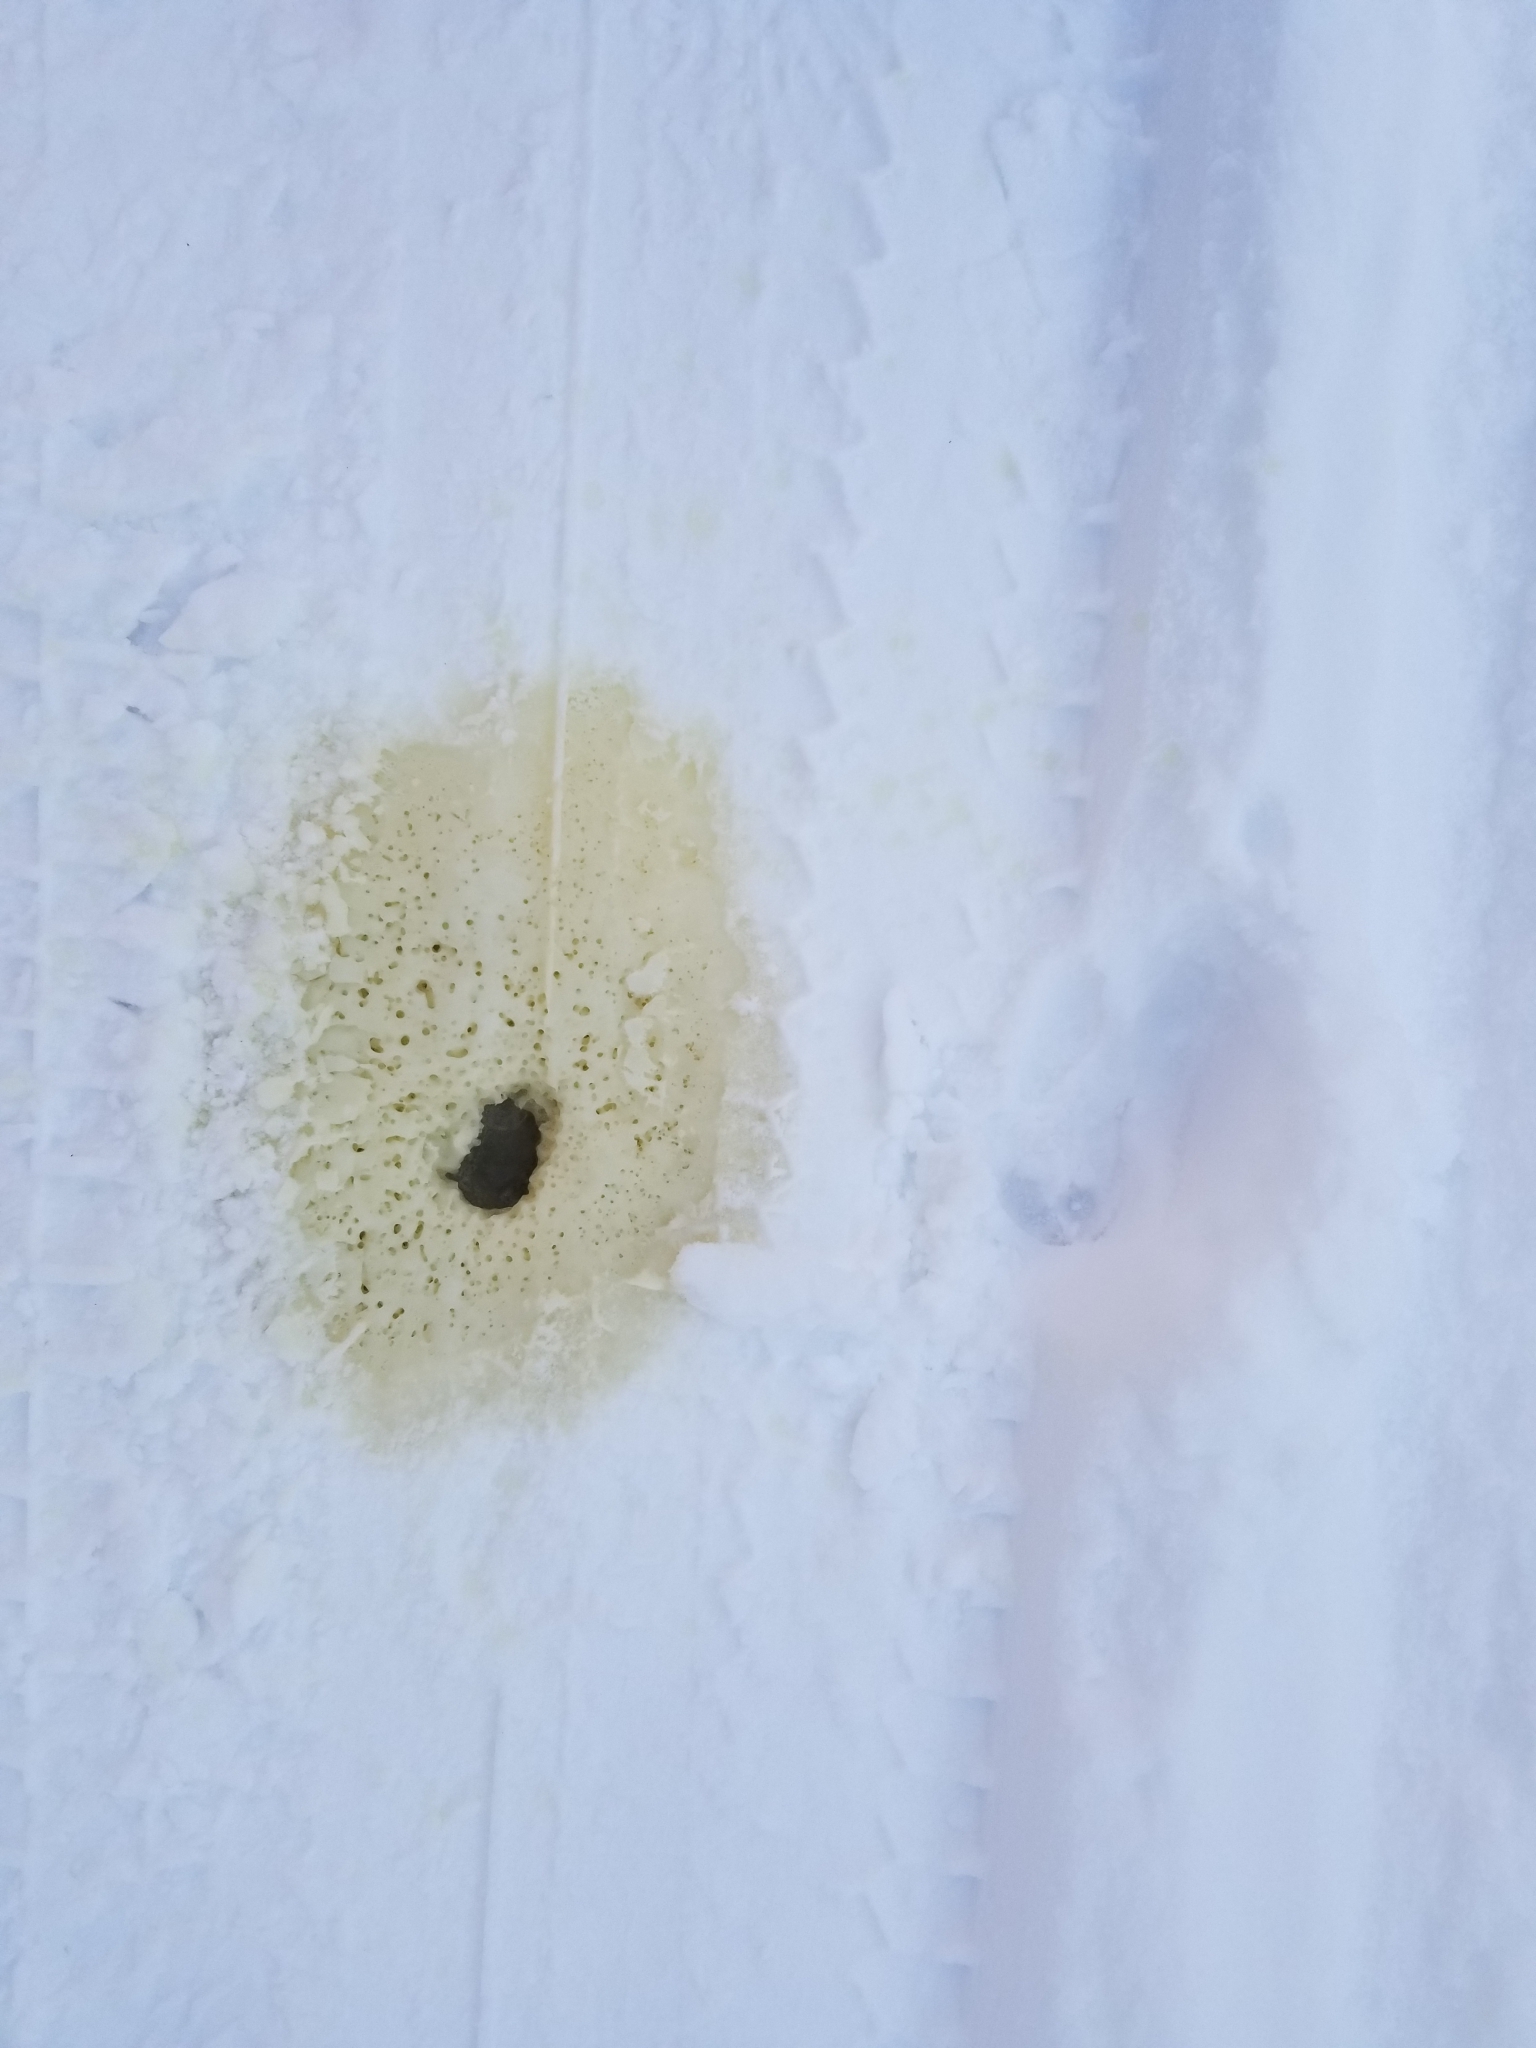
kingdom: Animalia
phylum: Chordata
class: Mammalia
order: Artiodactyla
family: Cervidae
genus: Alces
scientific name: Alces alces
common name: Moose
